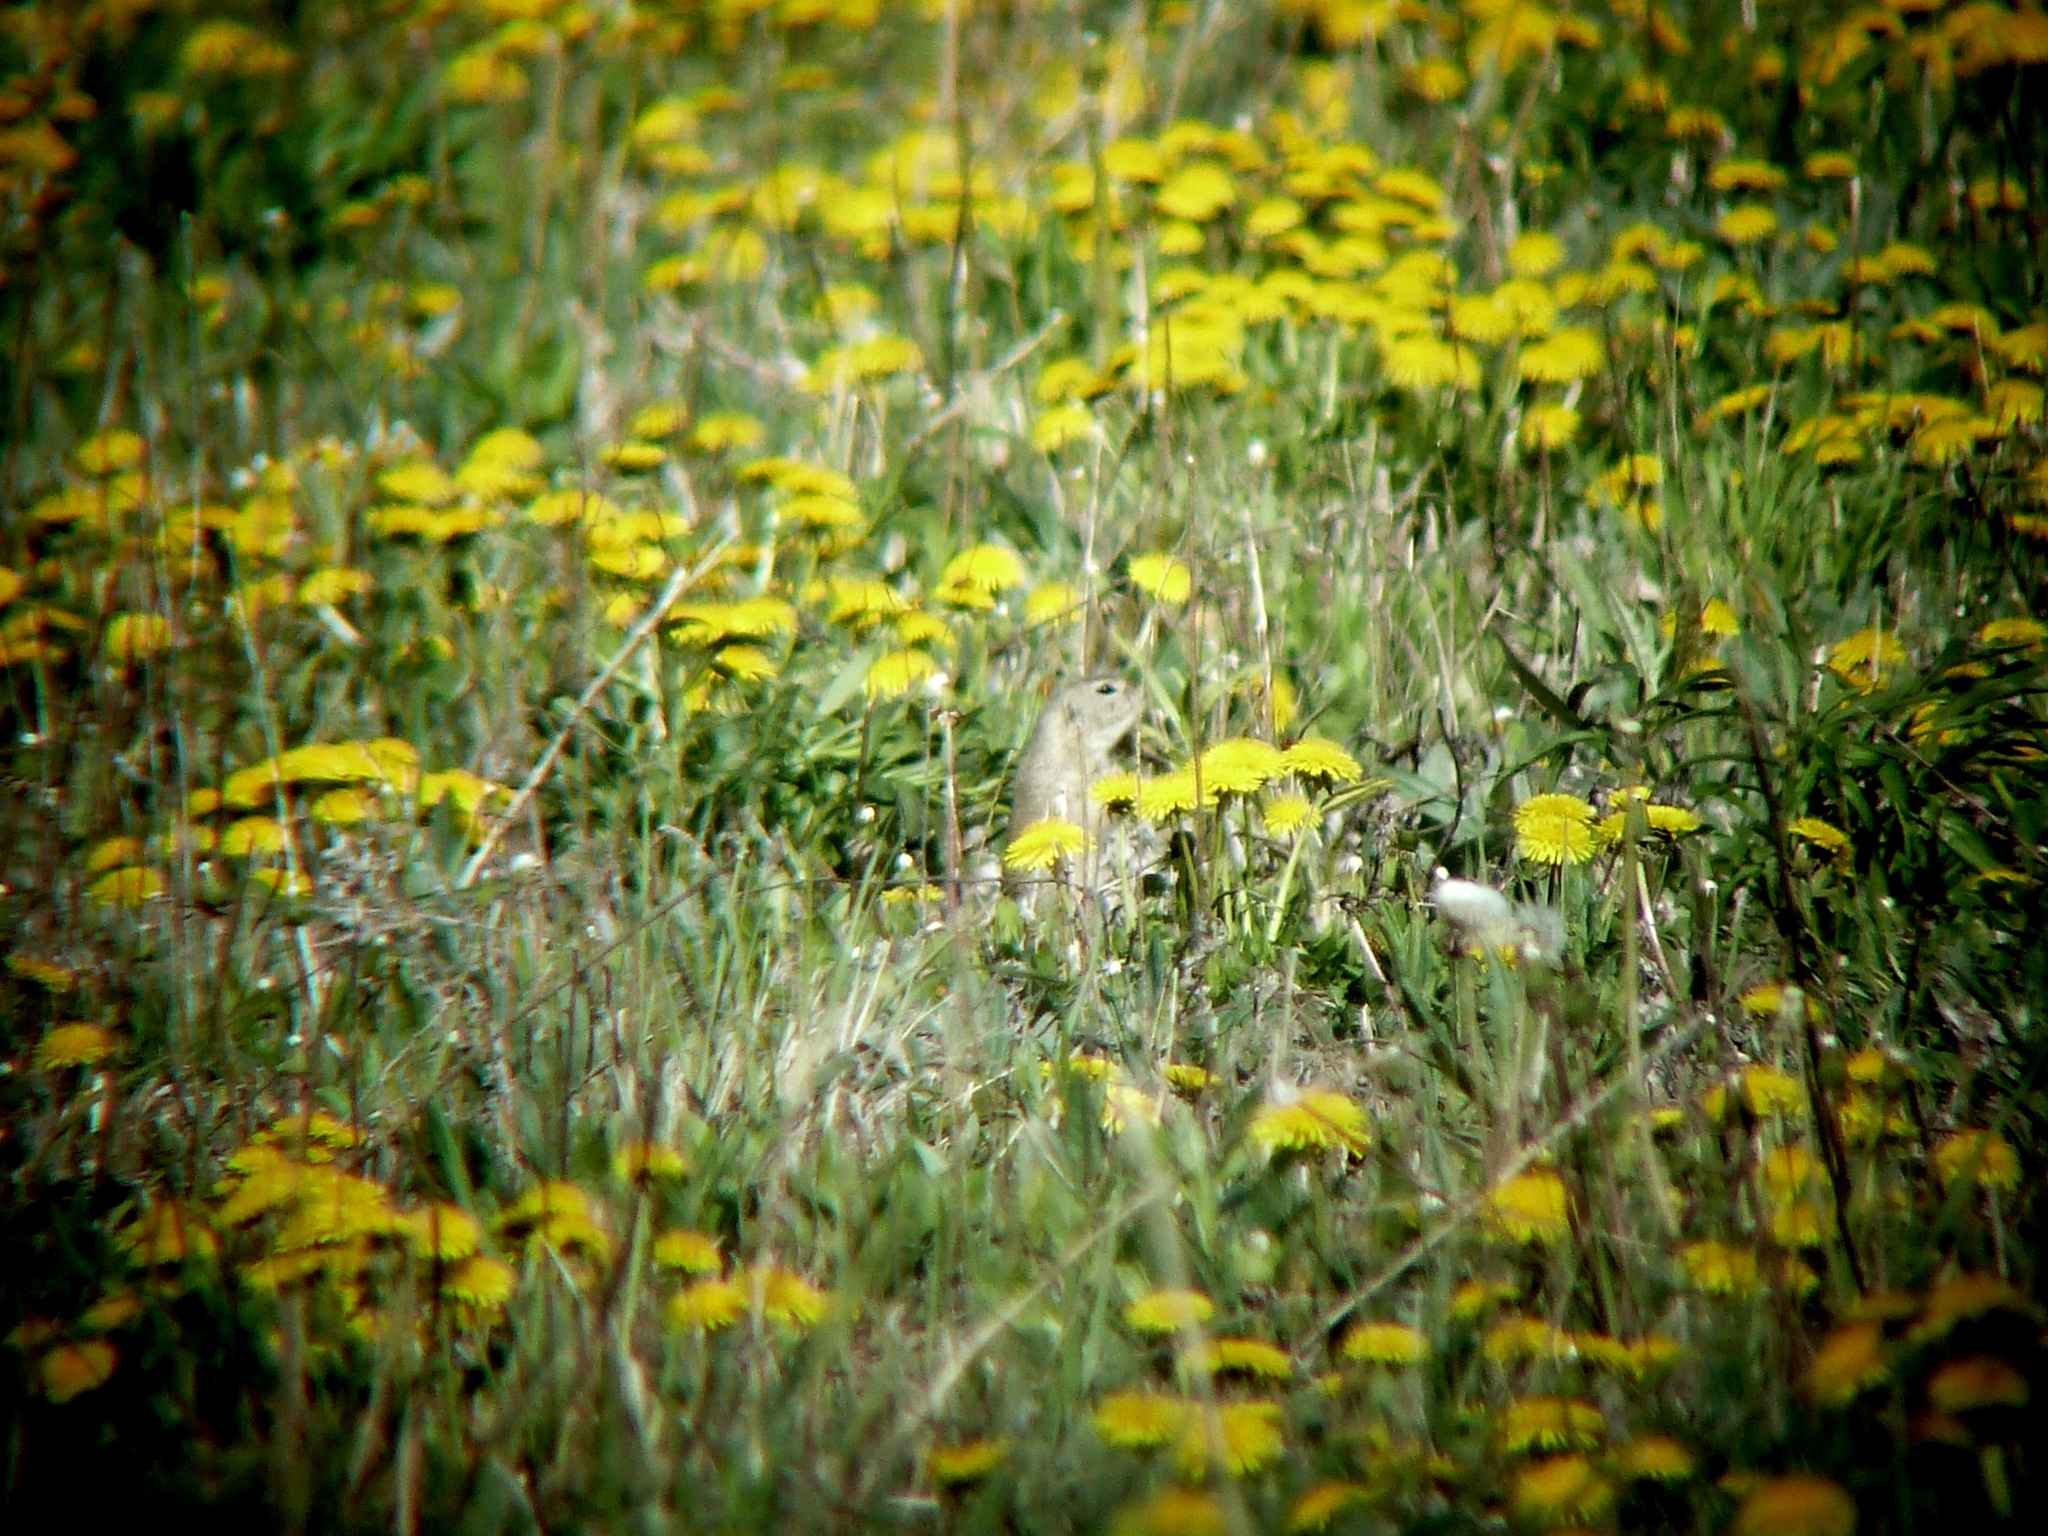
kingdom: Animalia
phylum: Chordata
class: Mammalia
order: Rodentia
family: Sciuridae
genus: Spermophilus
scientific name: Spermophilus citellus
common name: European ground squirrel
